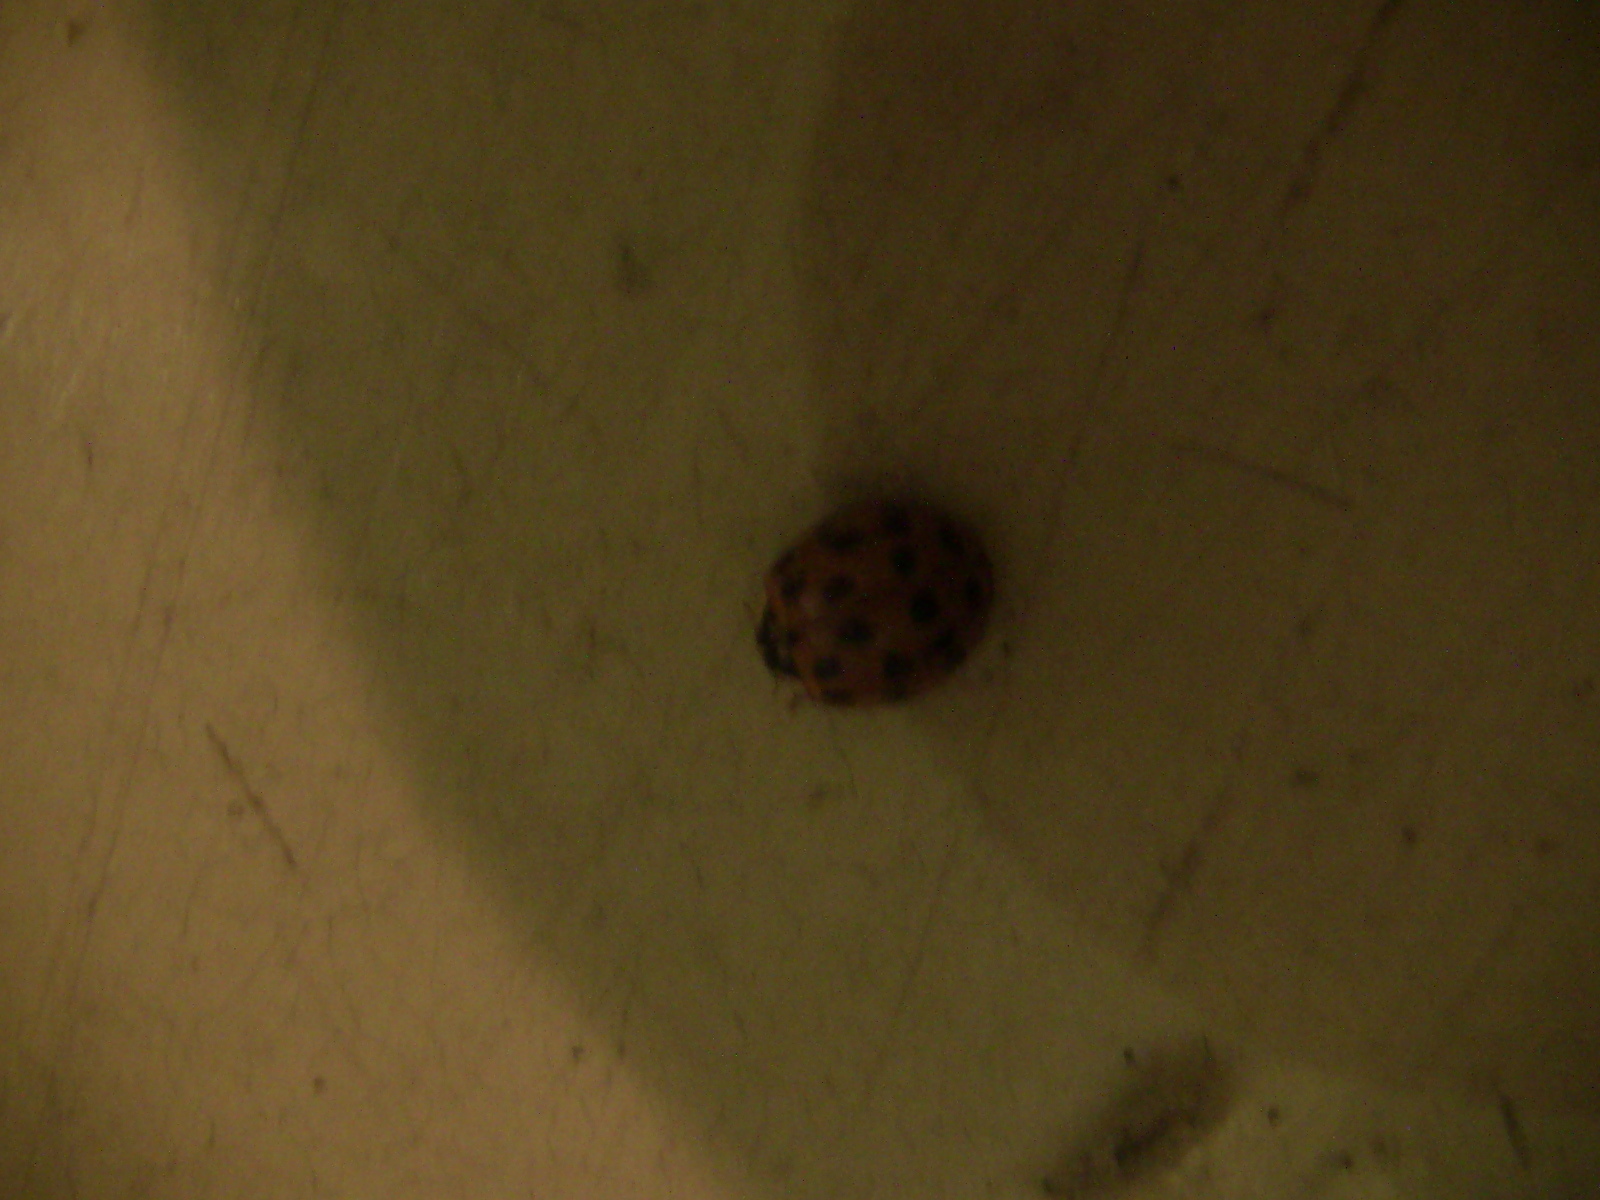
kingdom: Animalia
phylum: Arthropoda
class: Insecta
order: Coleoptera
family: Coccinellidae
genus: Harmonia
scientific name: Harmonia axyridis
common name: Harlequin ladybird
